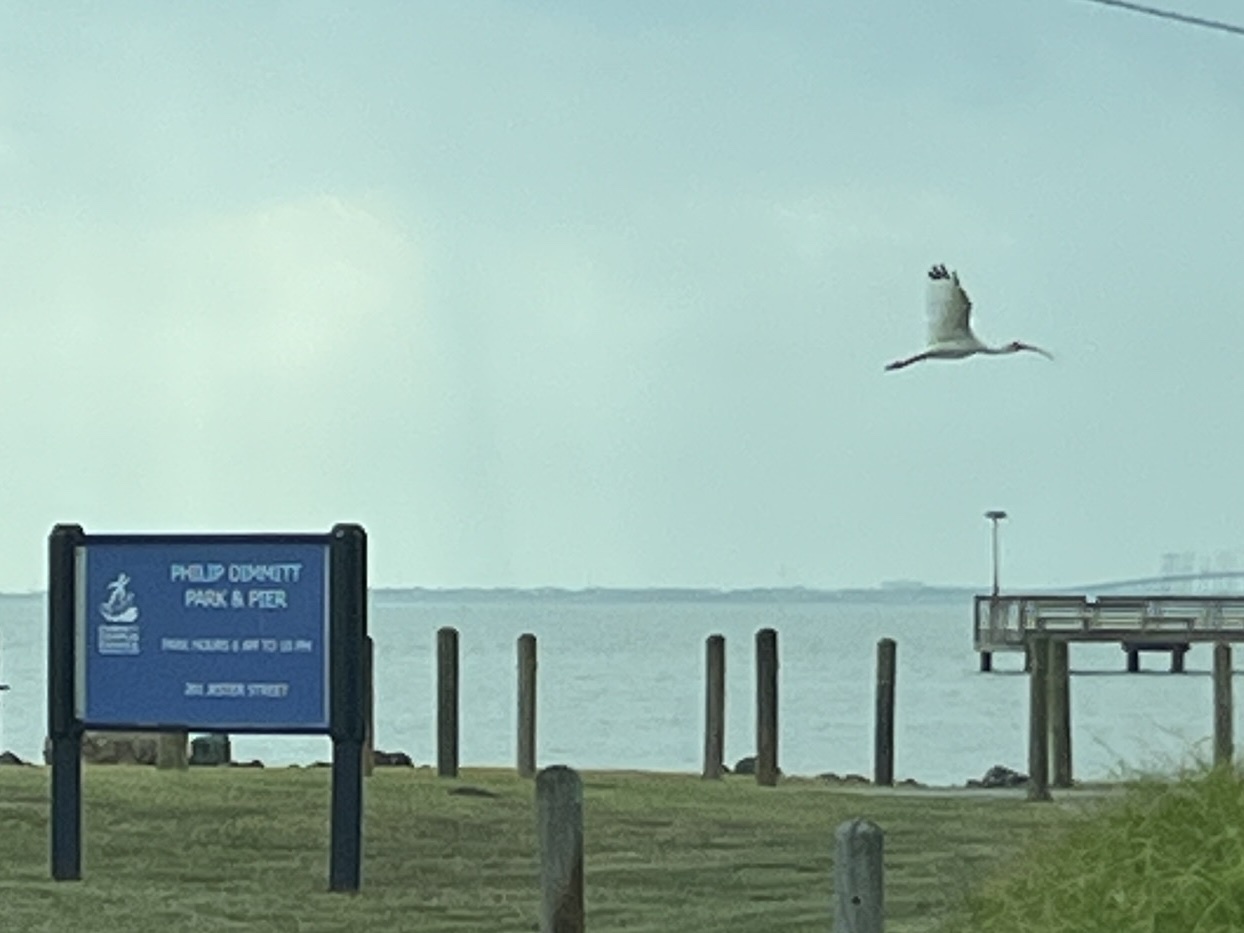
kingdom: Animalia
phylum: Chordata
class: Aves
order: Pelecaniformes
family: Threskiornithidae
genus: Eudocimus
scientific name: Eudocimus albus
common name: White ibis
